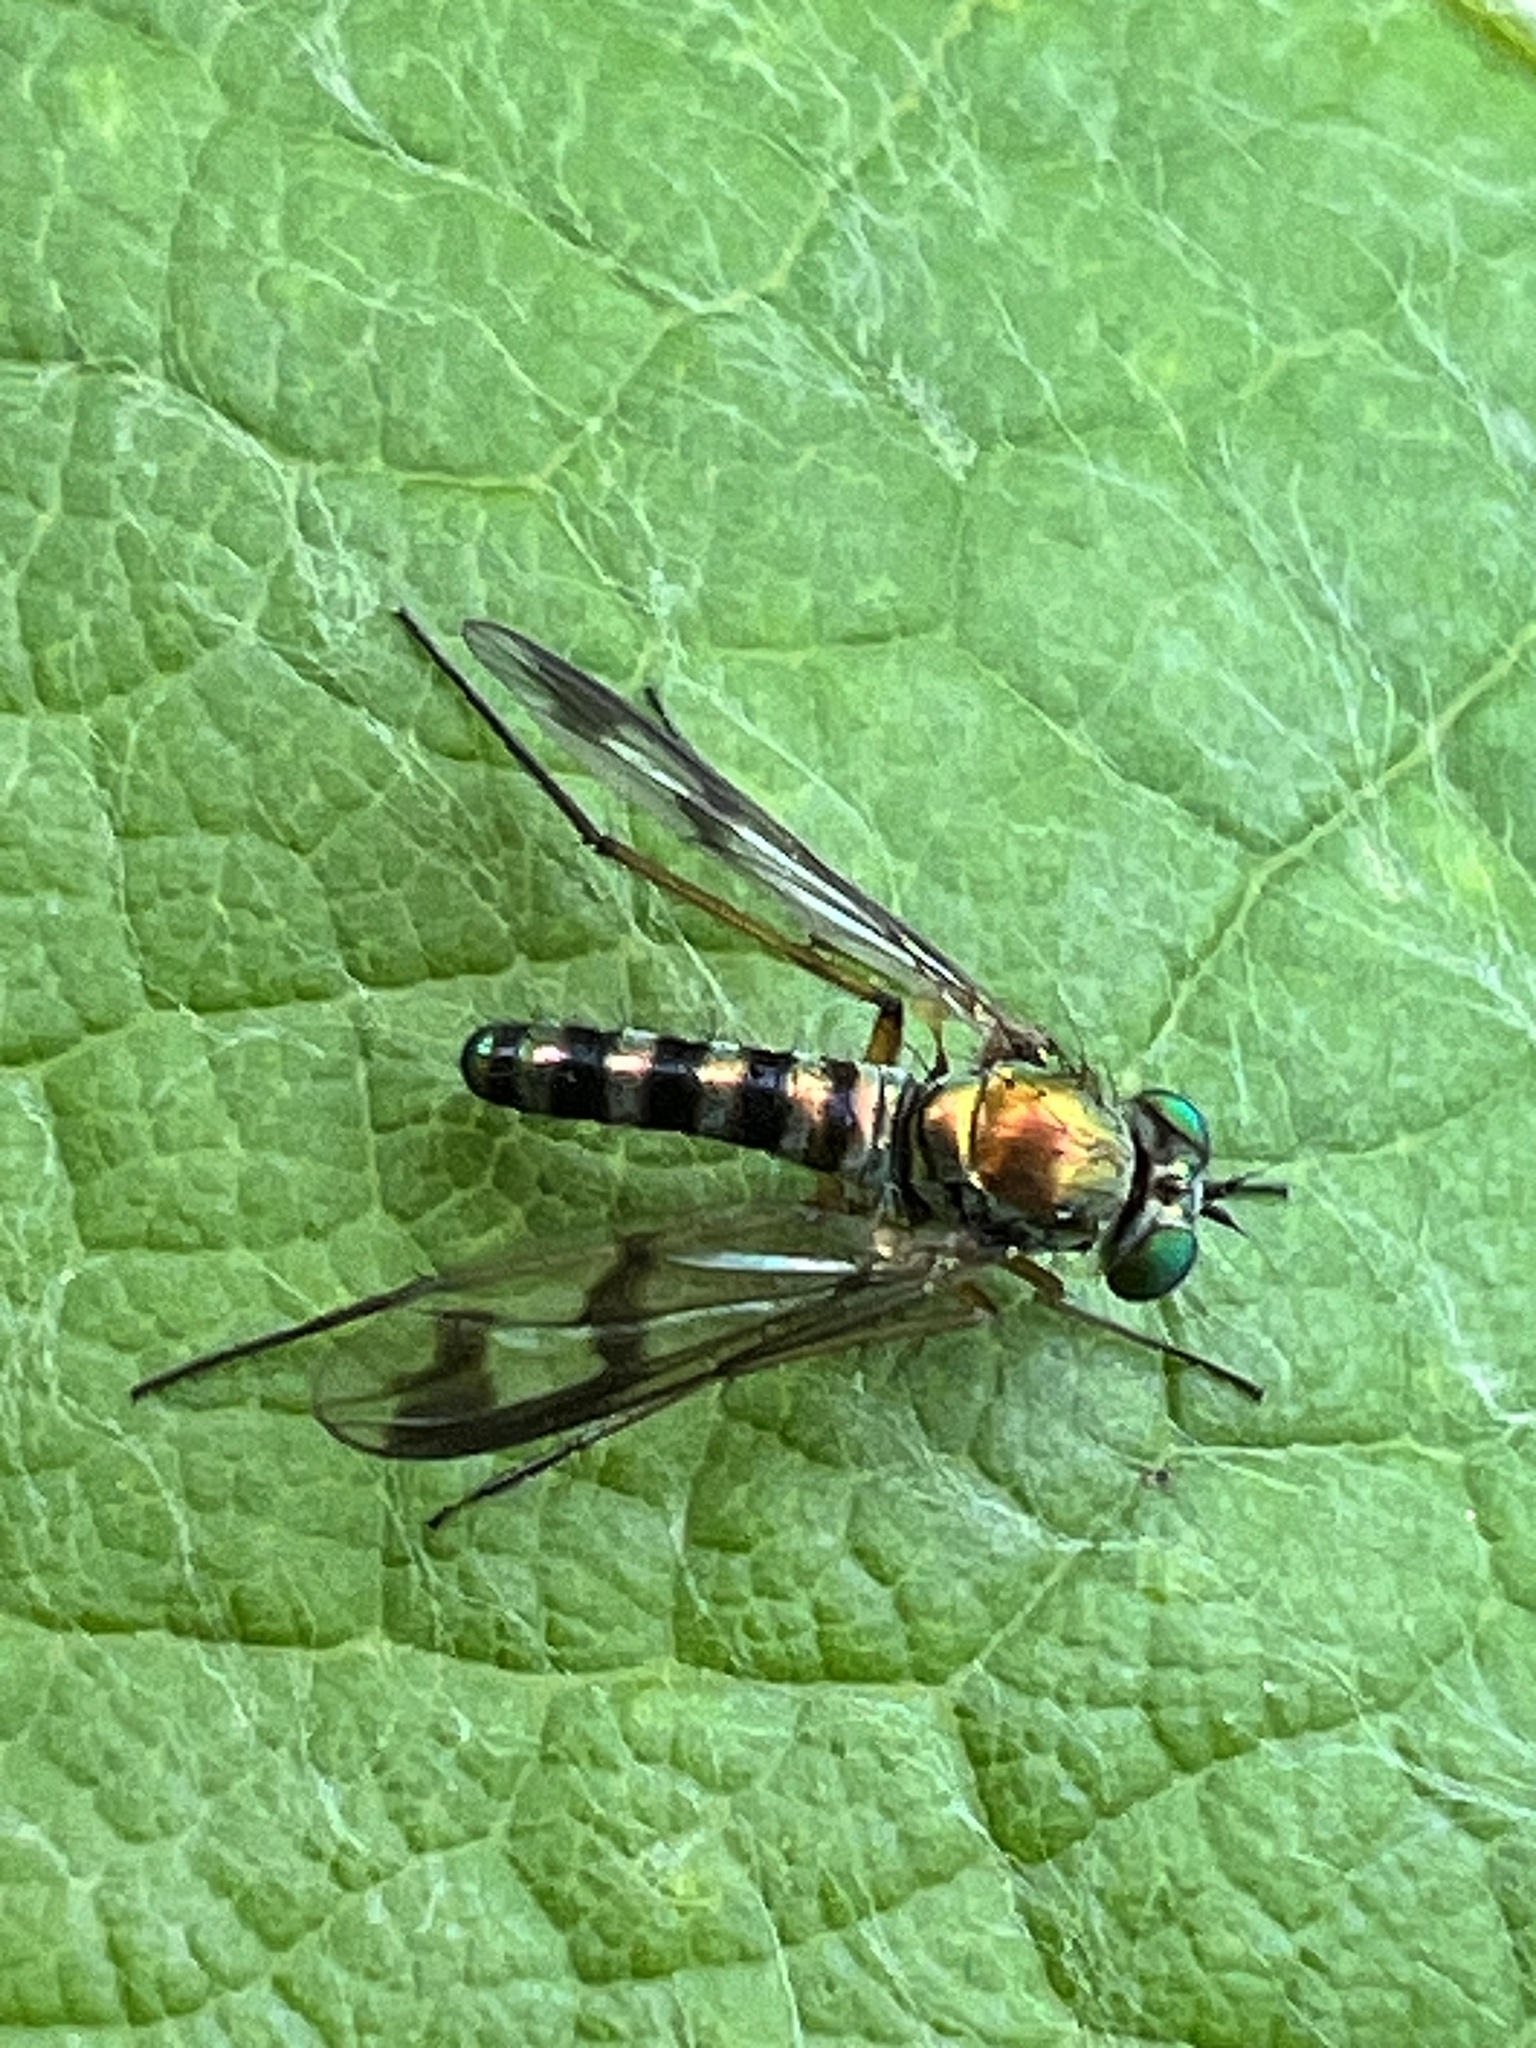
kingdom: Animalia
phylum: Arthropoda
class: Insecta
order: Diptera
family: Dolichopodidae
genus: Austrosciapus
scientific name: Austrosciapus proximus
